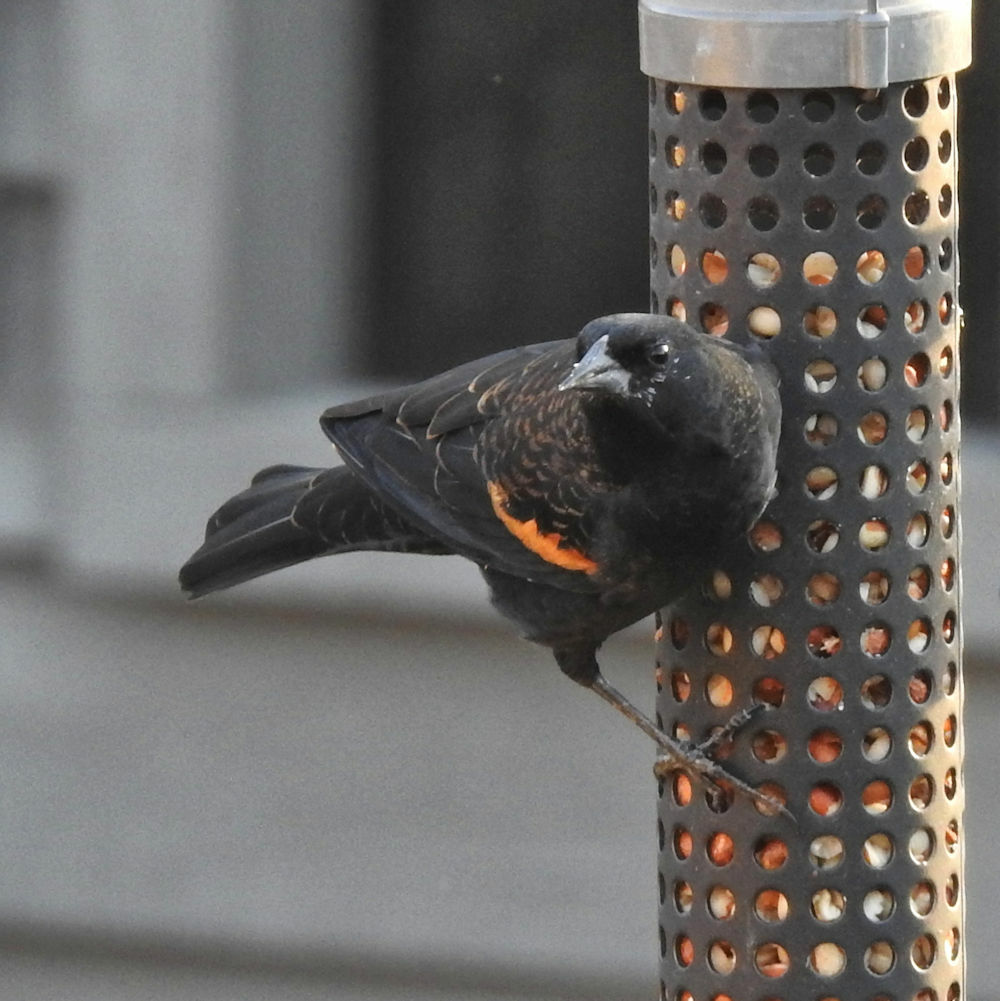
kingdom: Animalia
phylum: Chordata
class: Aves
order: Passeriformes
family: Icteridae
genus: Agelaius
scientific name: Agelaius phoeniceus
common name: Red-winged blackbird
